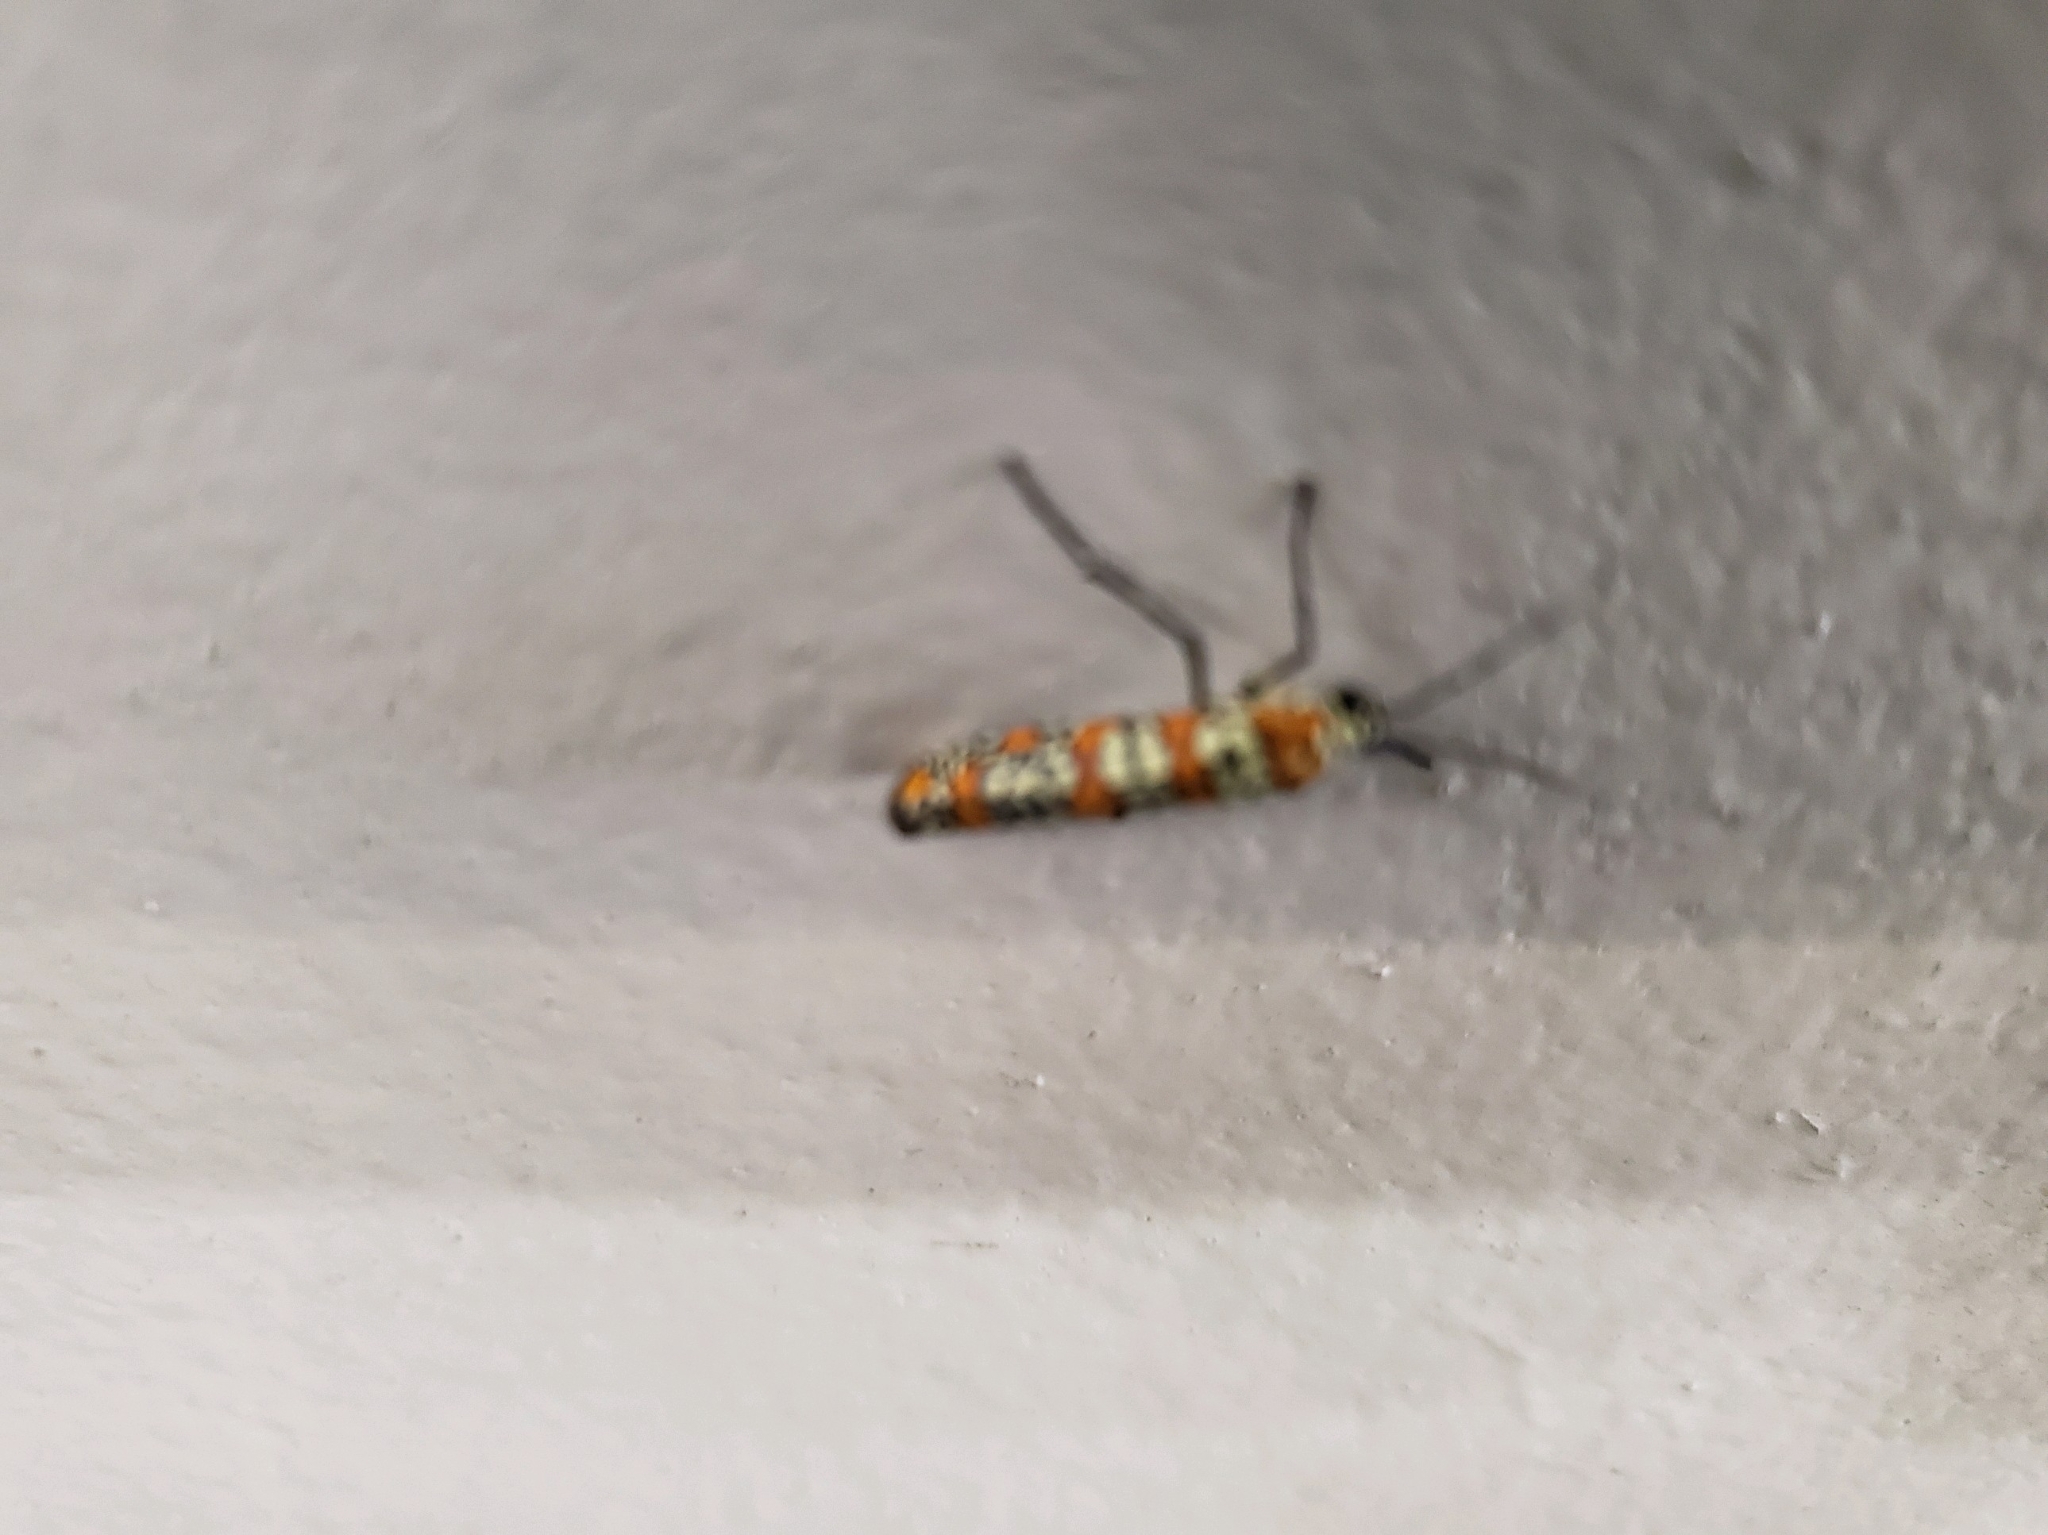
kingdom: Animalia
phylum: Arthropoda
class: Insecta
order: Lepidoptera
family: Attevidae
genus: Atteva
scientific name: Atteva punctella
